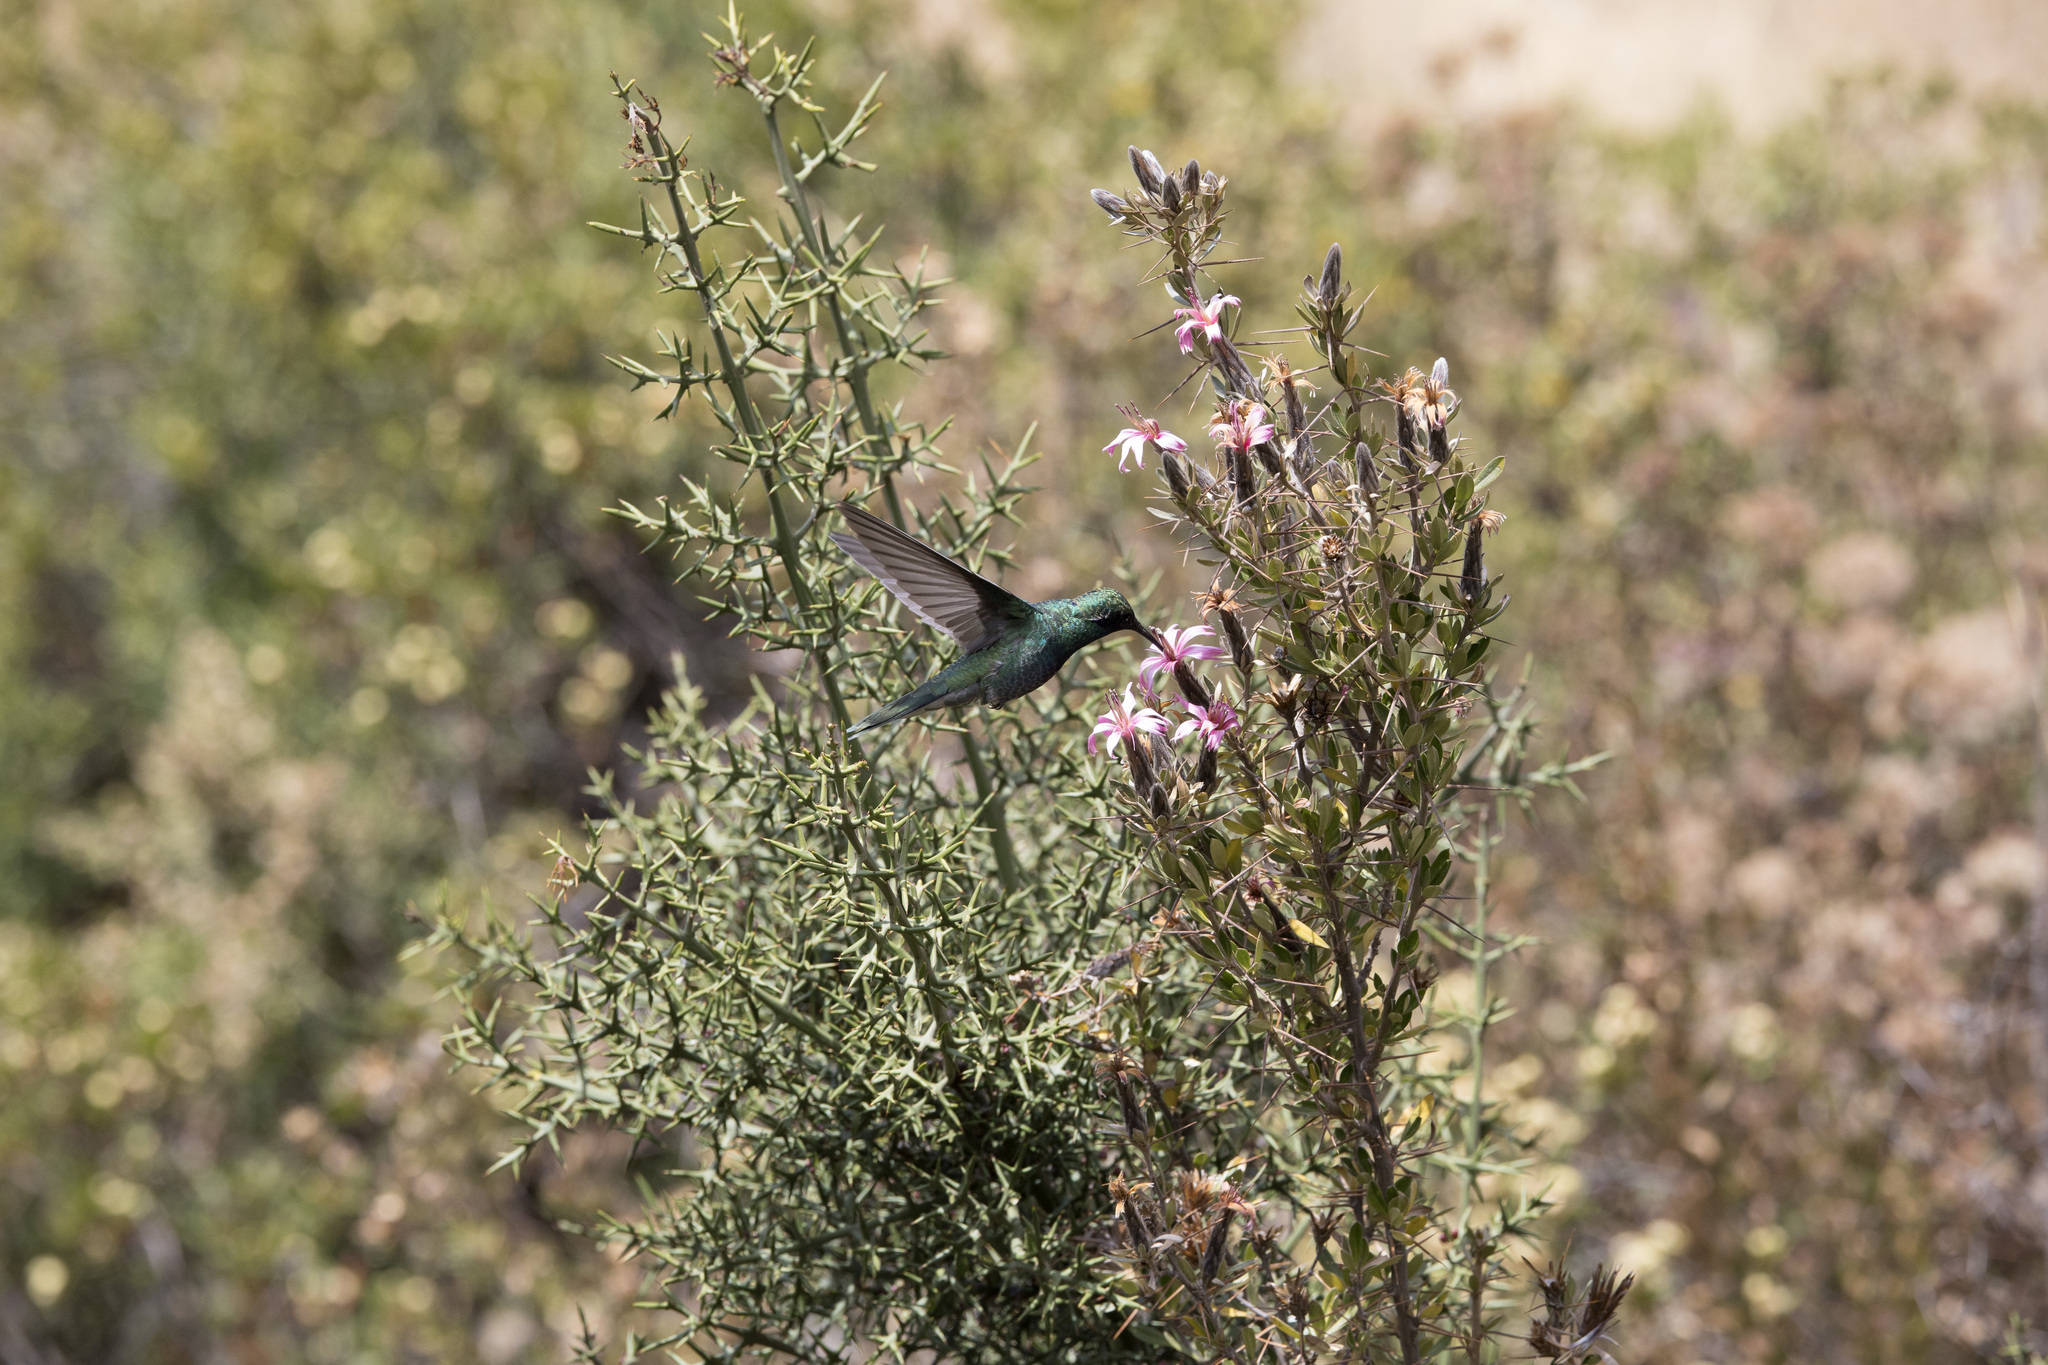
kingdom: Animalia
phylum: Chordata
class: Aves
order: Apodiformes
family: Trochilidae
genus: Colibri
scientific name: Colibri coruscans
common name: Sparkling violetear
